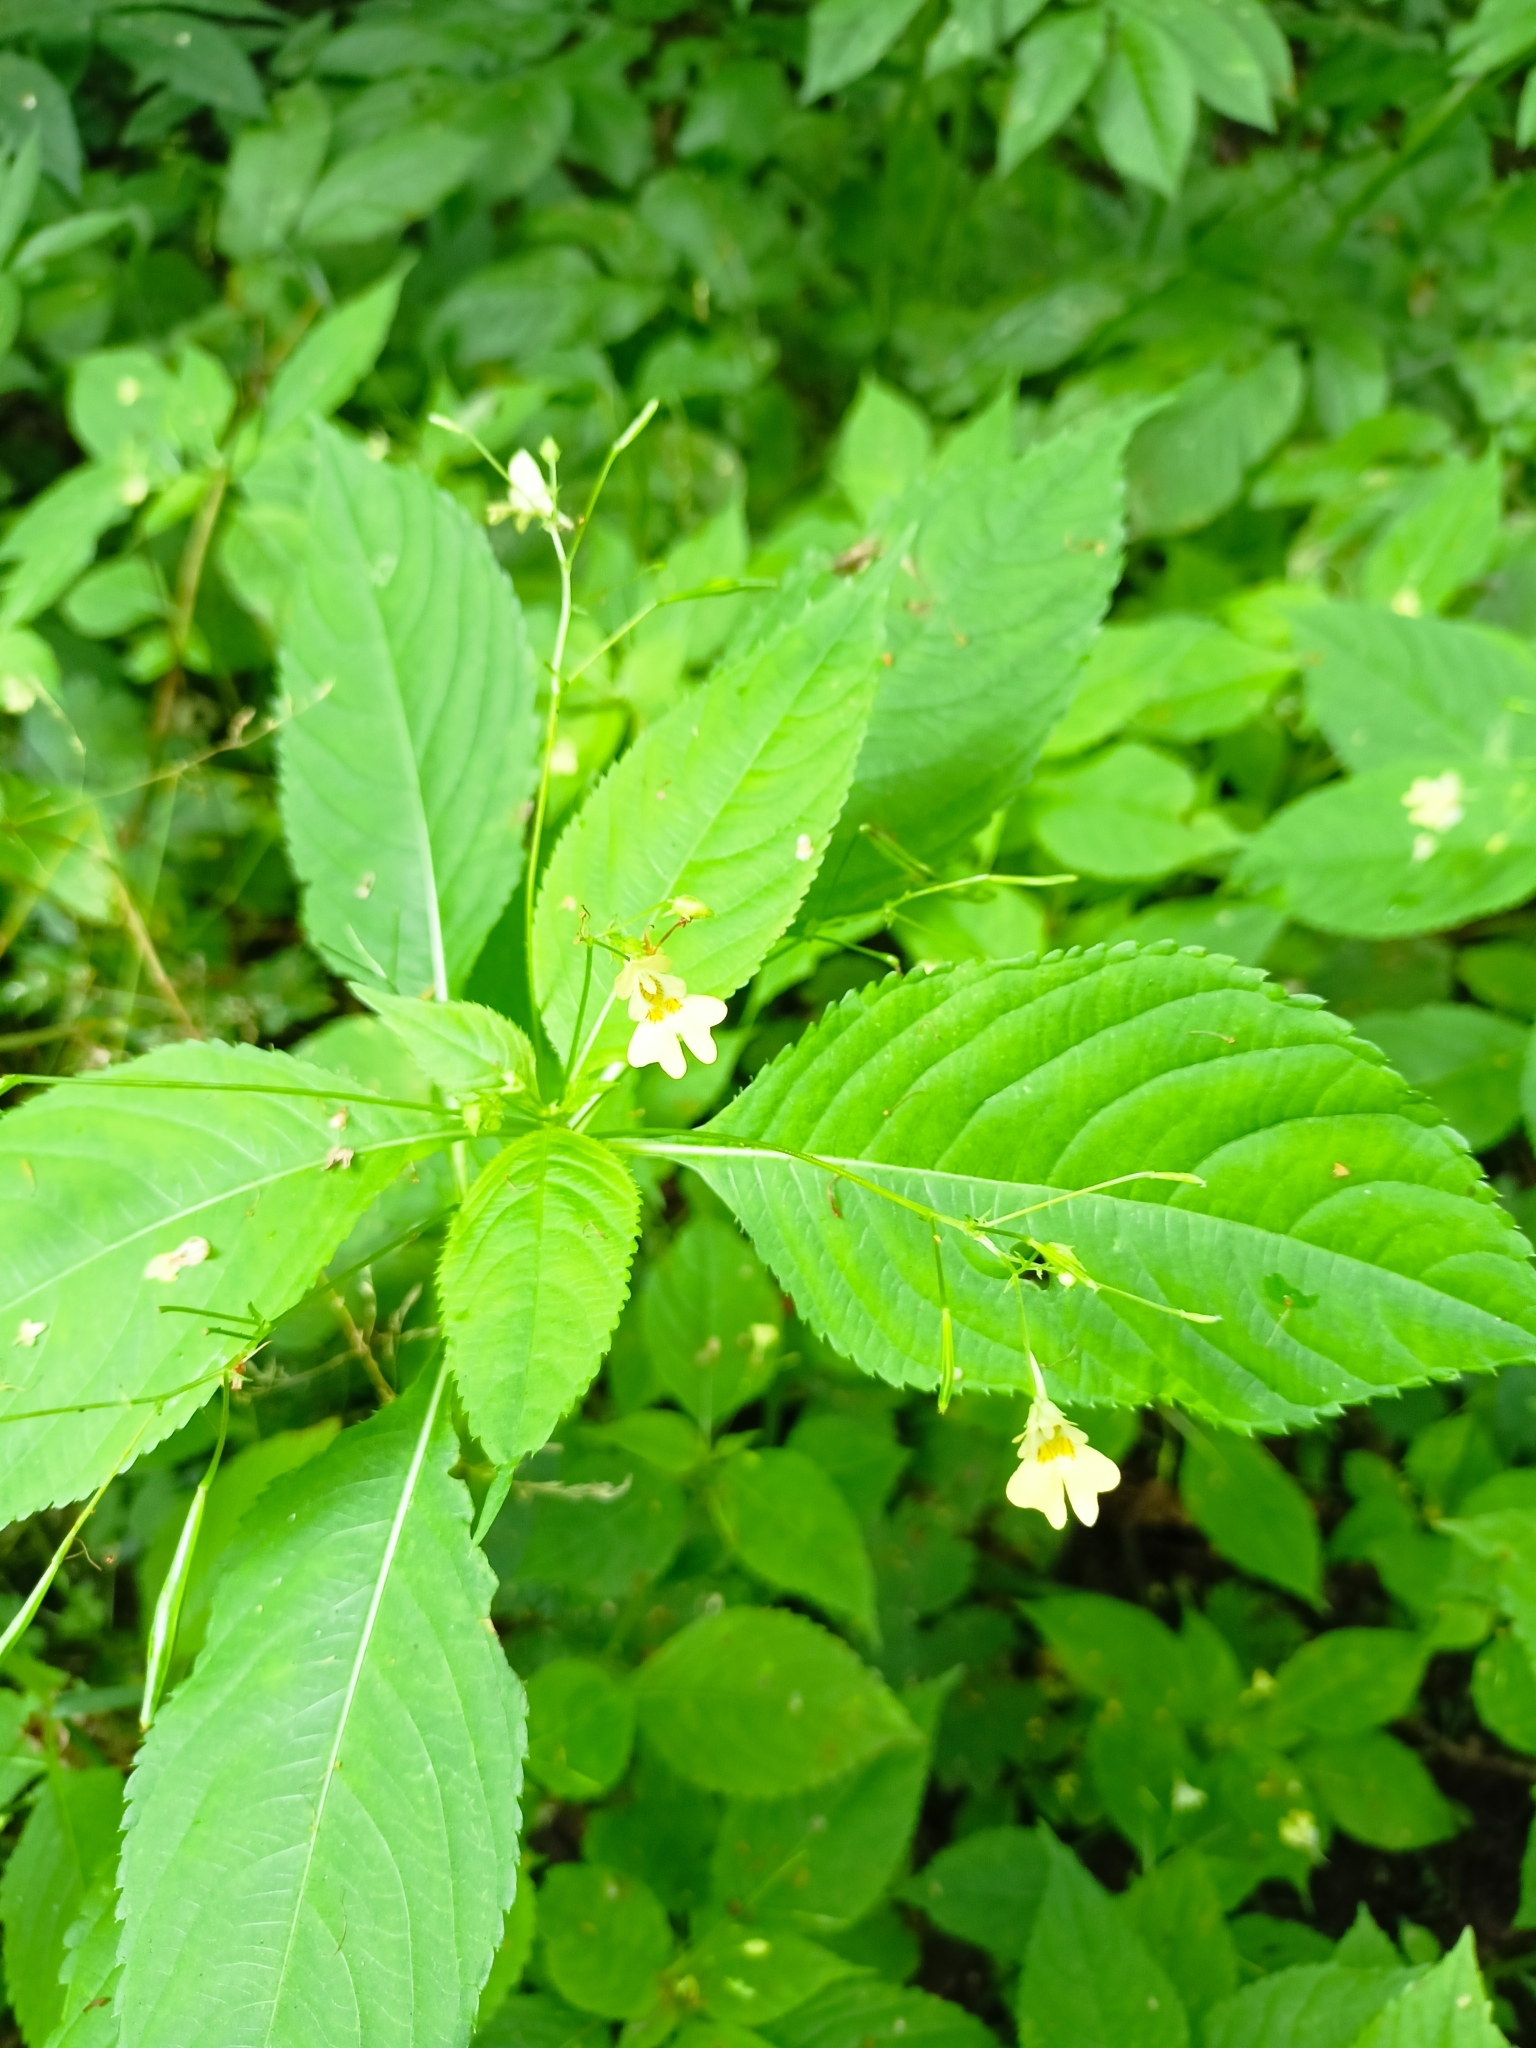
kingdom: Plantae
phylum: Tracheophyta
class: Magnoliopsida
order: Ericales
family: Balsaminaceae
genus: Impatiens
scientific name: Impatiens parviflora
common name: Small balsam
